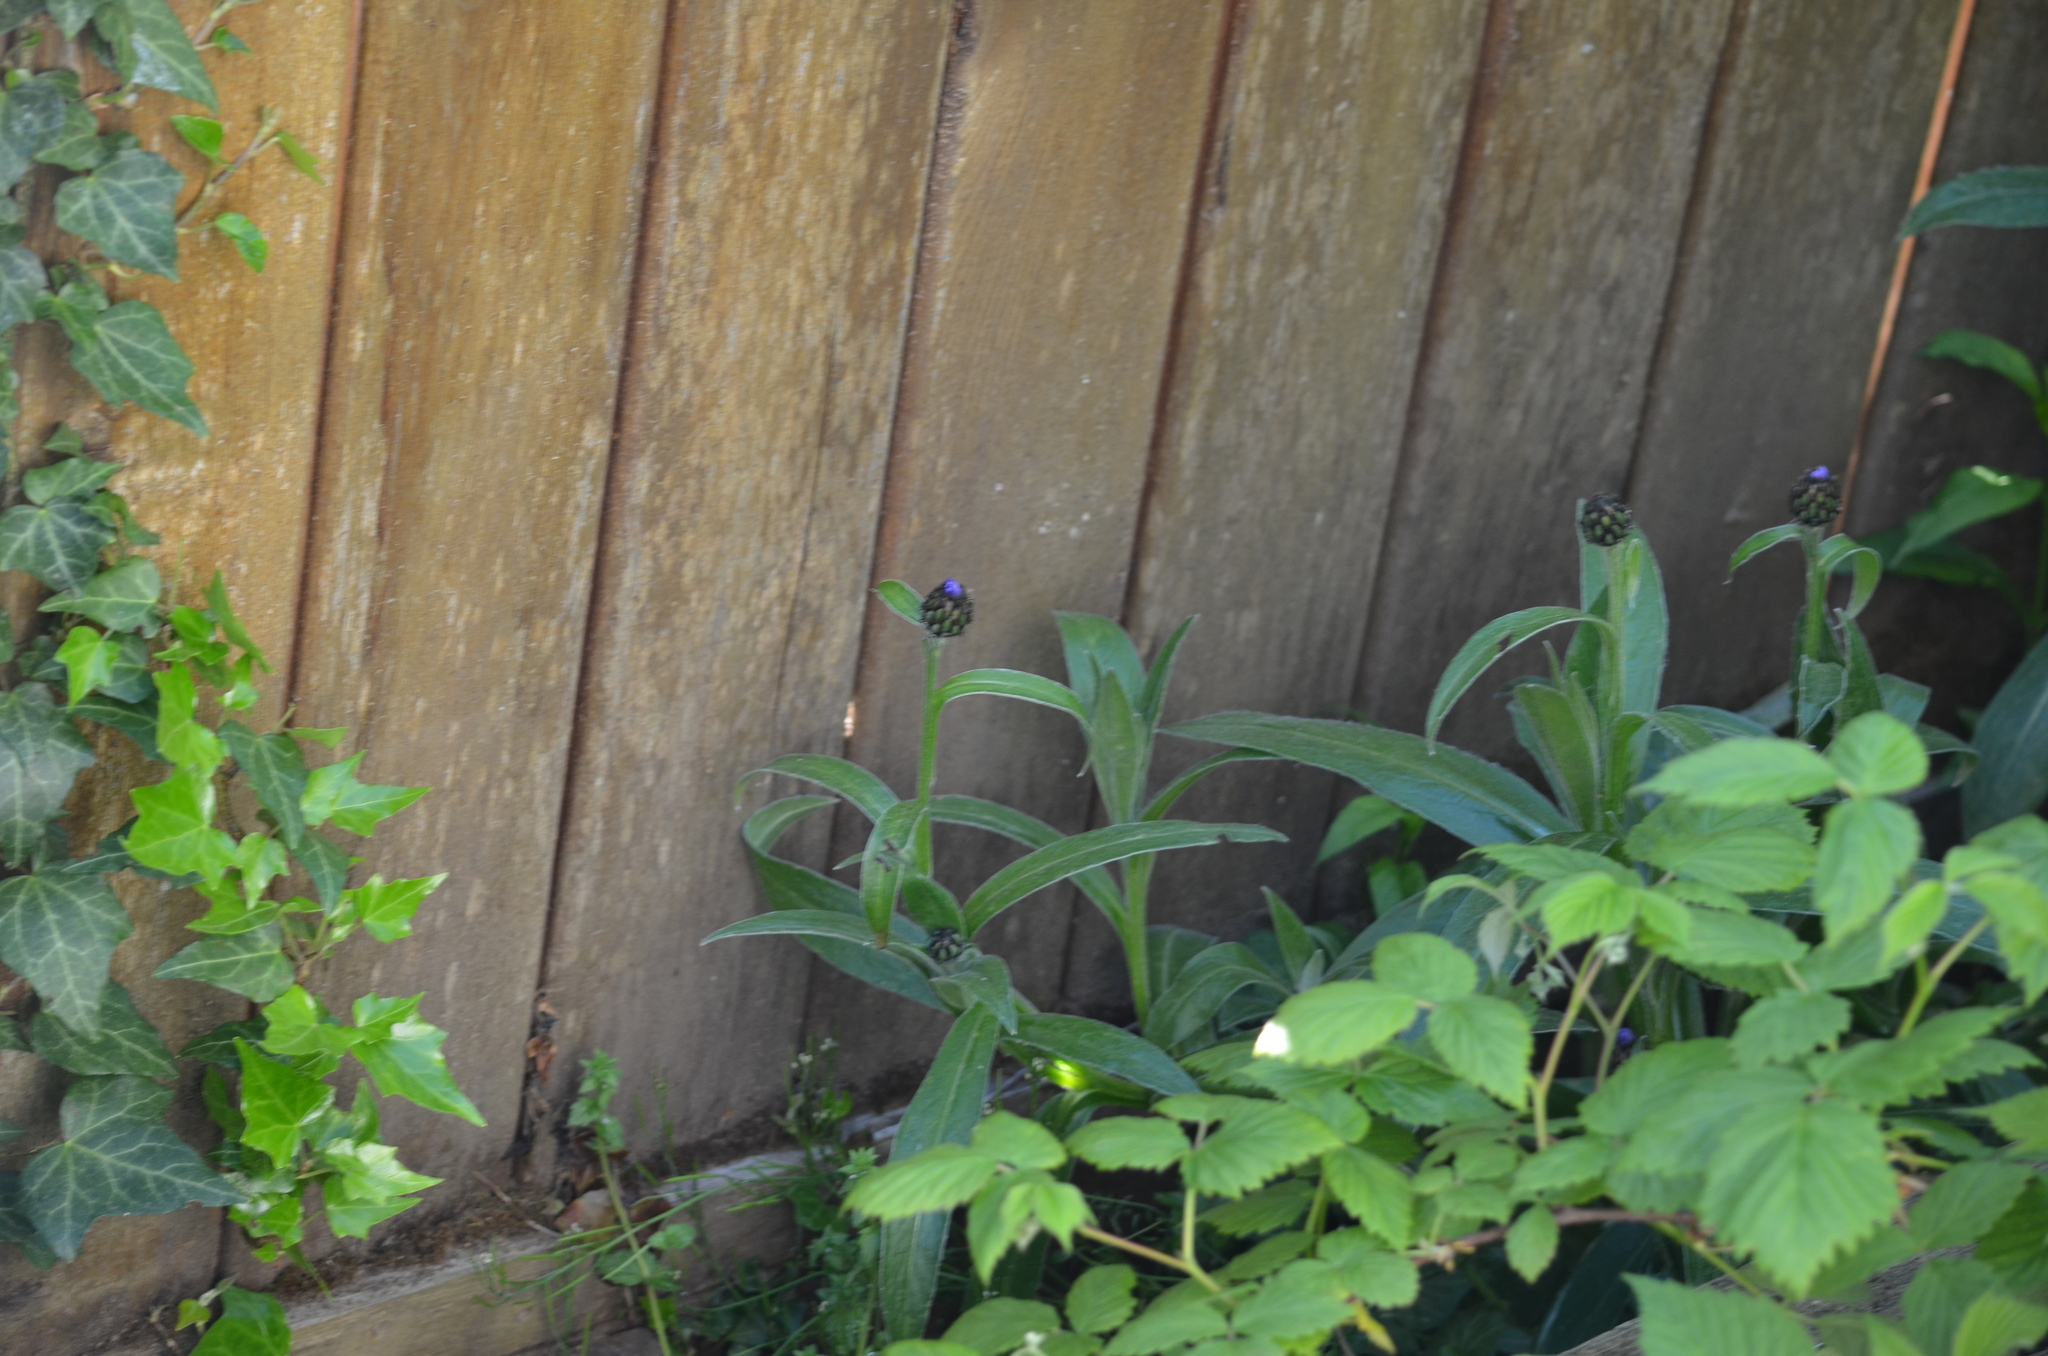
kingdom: Plantae
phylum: Tracheophyta
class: Magnoliopsida
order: Asterales
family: Asteraceae
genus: Centaurea
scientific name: Centaurea montana
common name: Perennial cornflower
